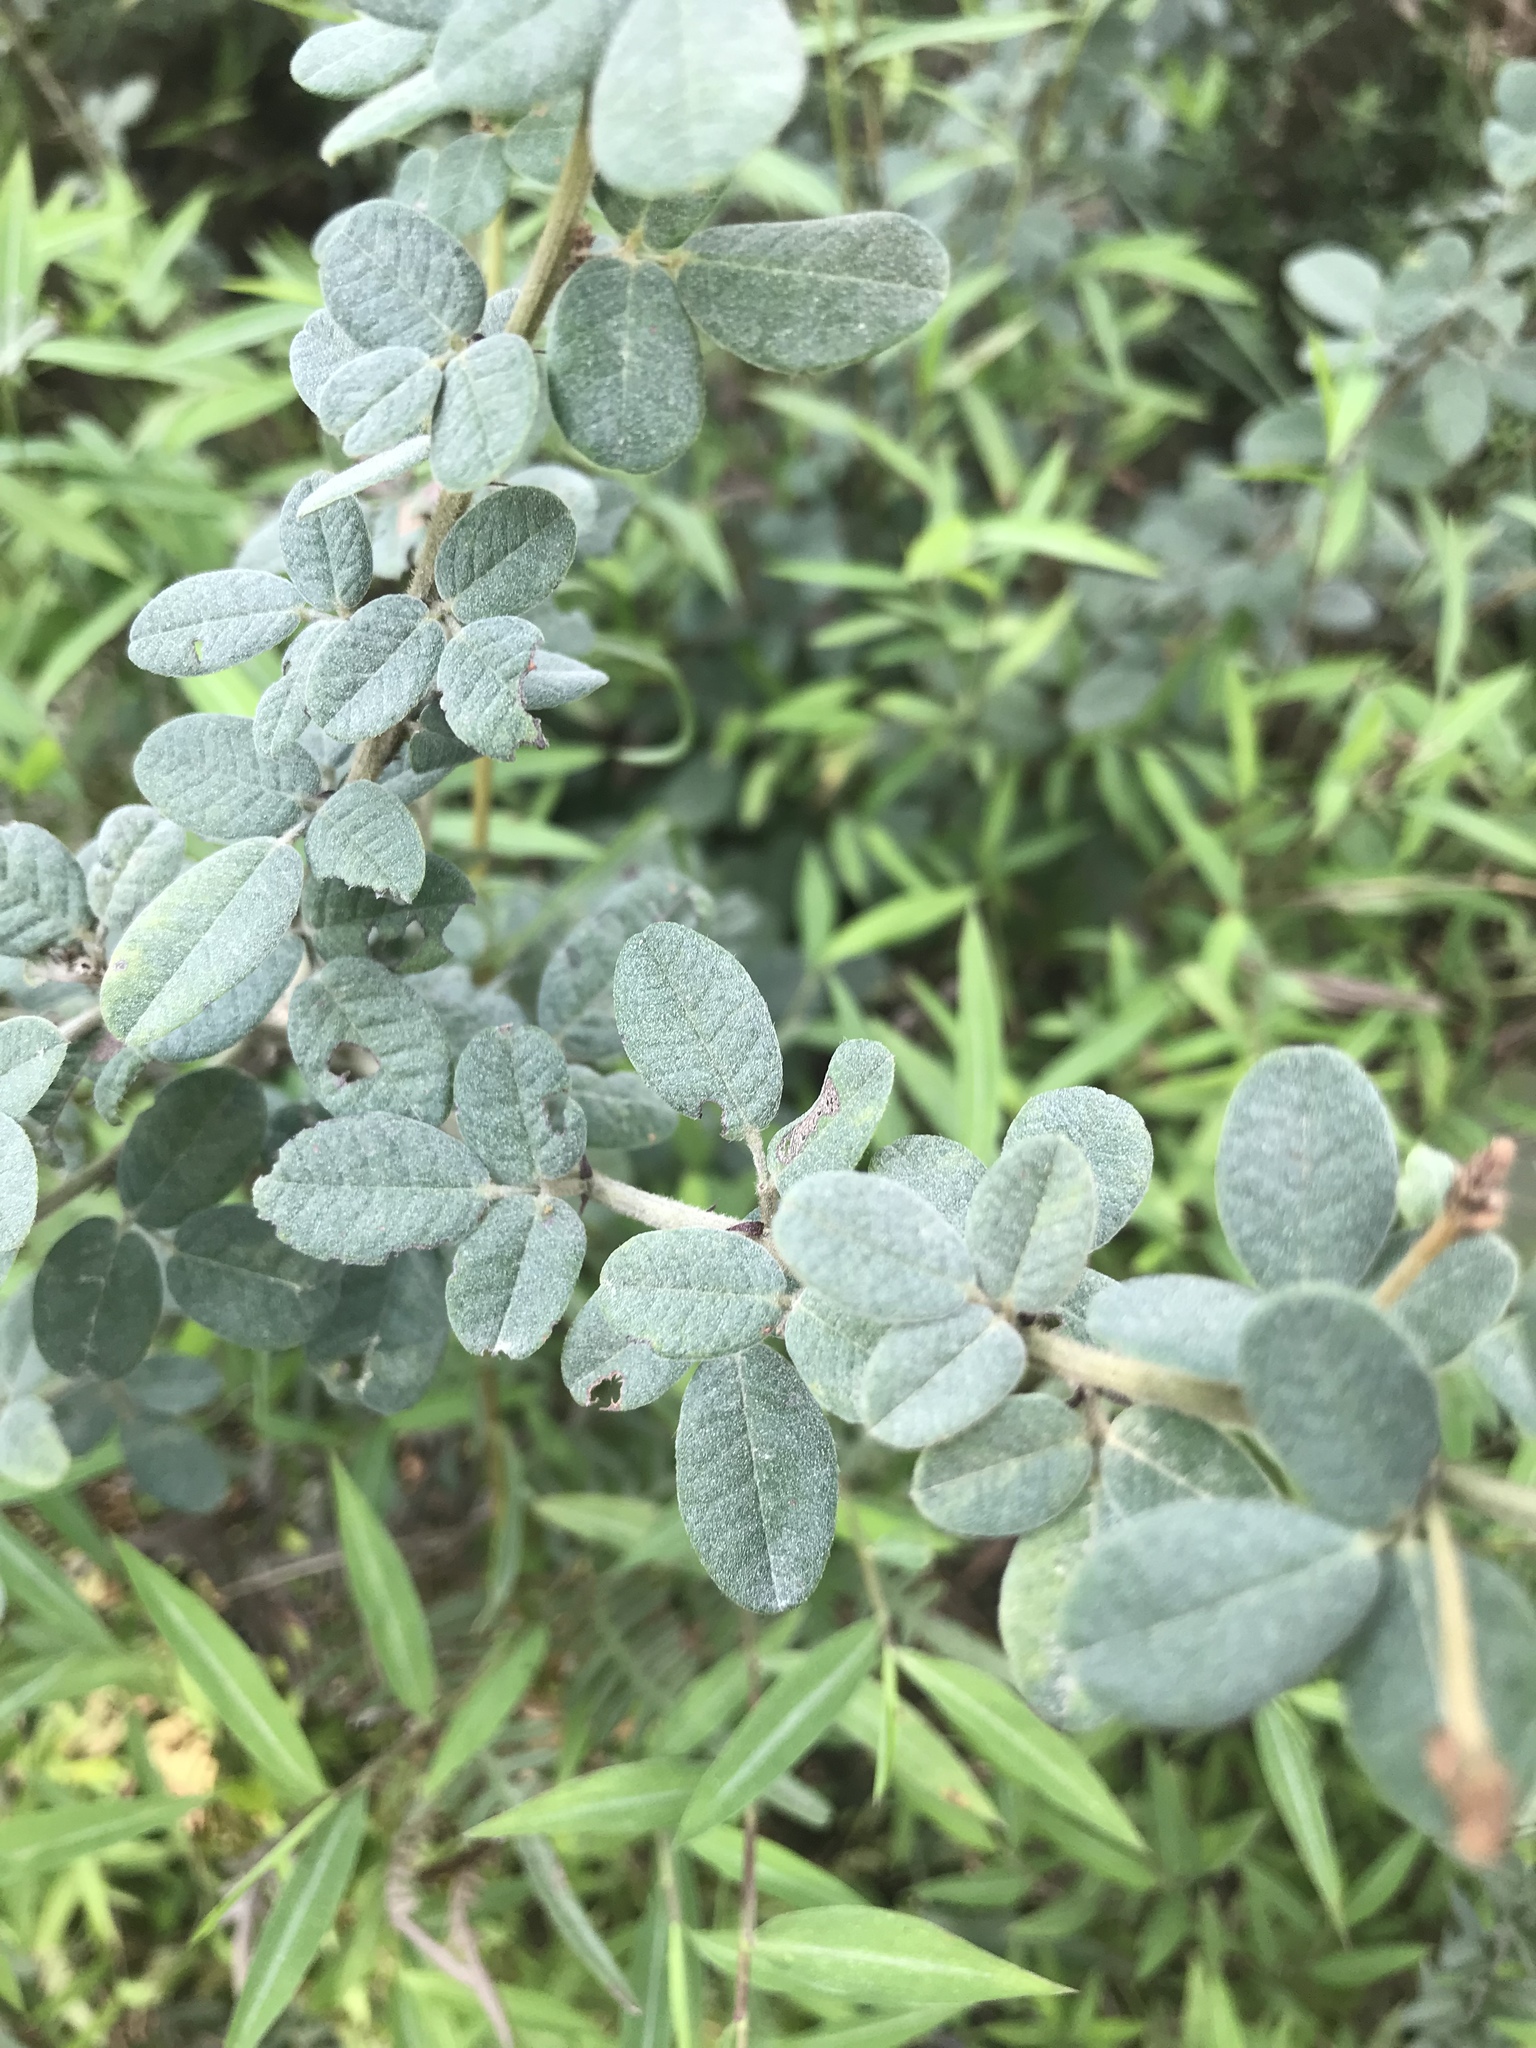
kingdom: Plantae
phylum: Tracheophyta
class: Magnoliopsida
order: Fabales
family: Fabaceae
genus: Lespedeza
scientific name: Lespedeza hirta
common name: Hairy lespedeza
